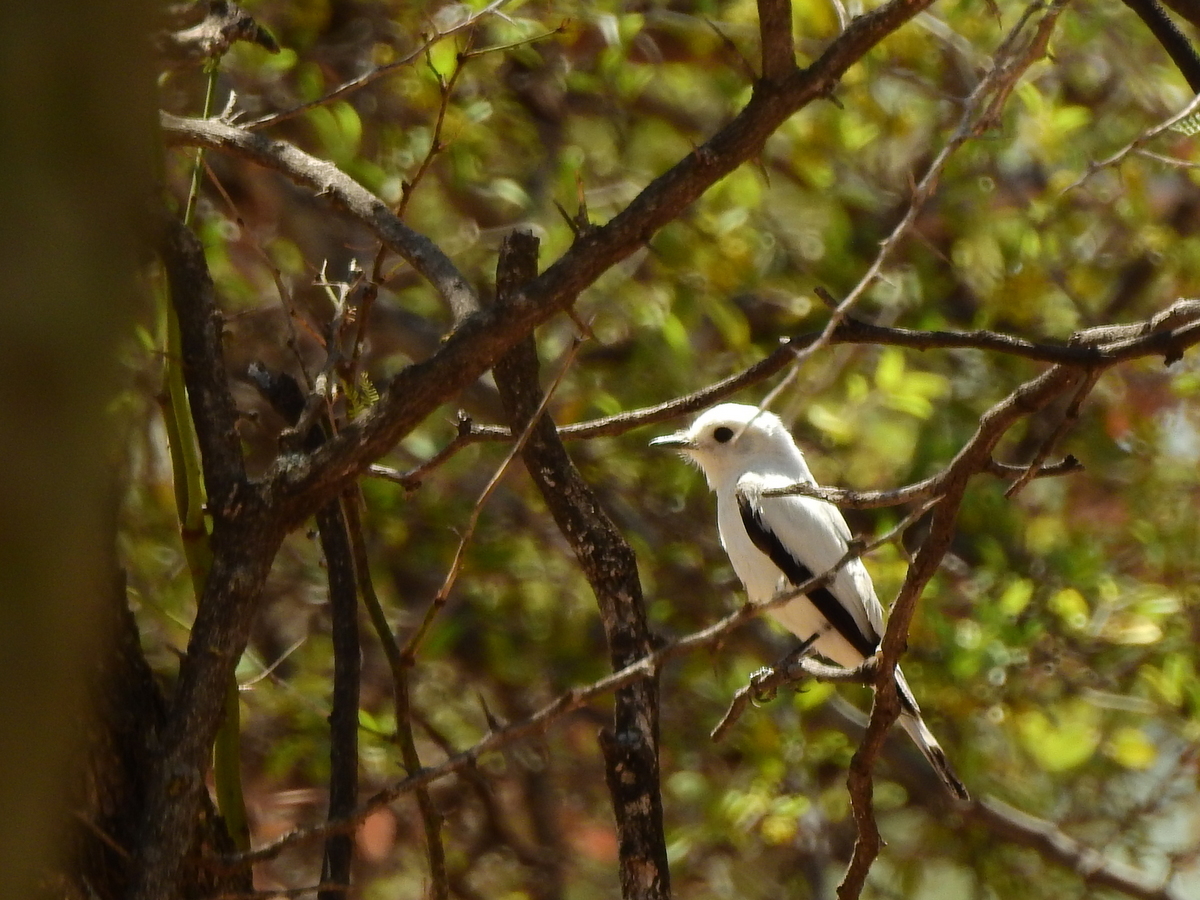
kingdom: Animalia
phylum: Chordata
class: Aves
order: Passeriformes
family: Tyrannidae
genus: Xolmis
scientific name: Xolmis irupero
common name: White monjita
